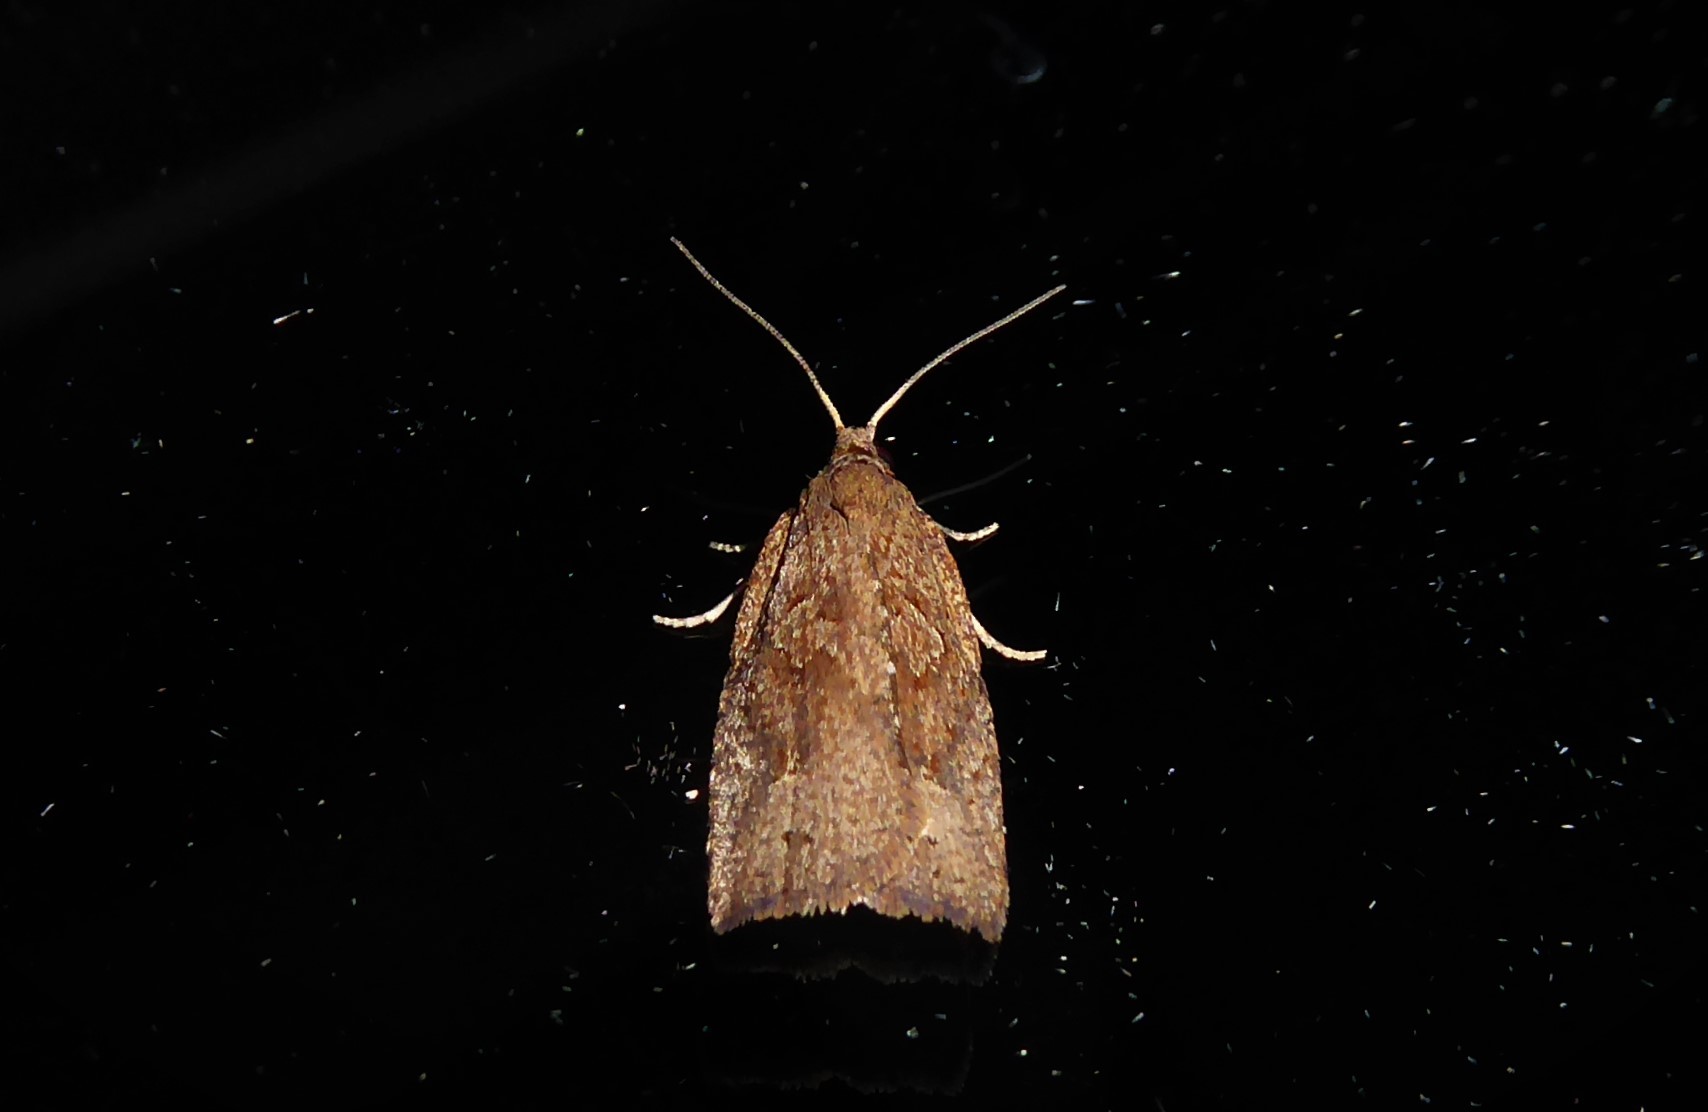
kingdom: Animalia
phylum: Arthropoda
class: Insecta
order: Lepidoptera
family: Tortricidae
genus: Planotortrix
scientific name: Planotortrix notophaea
